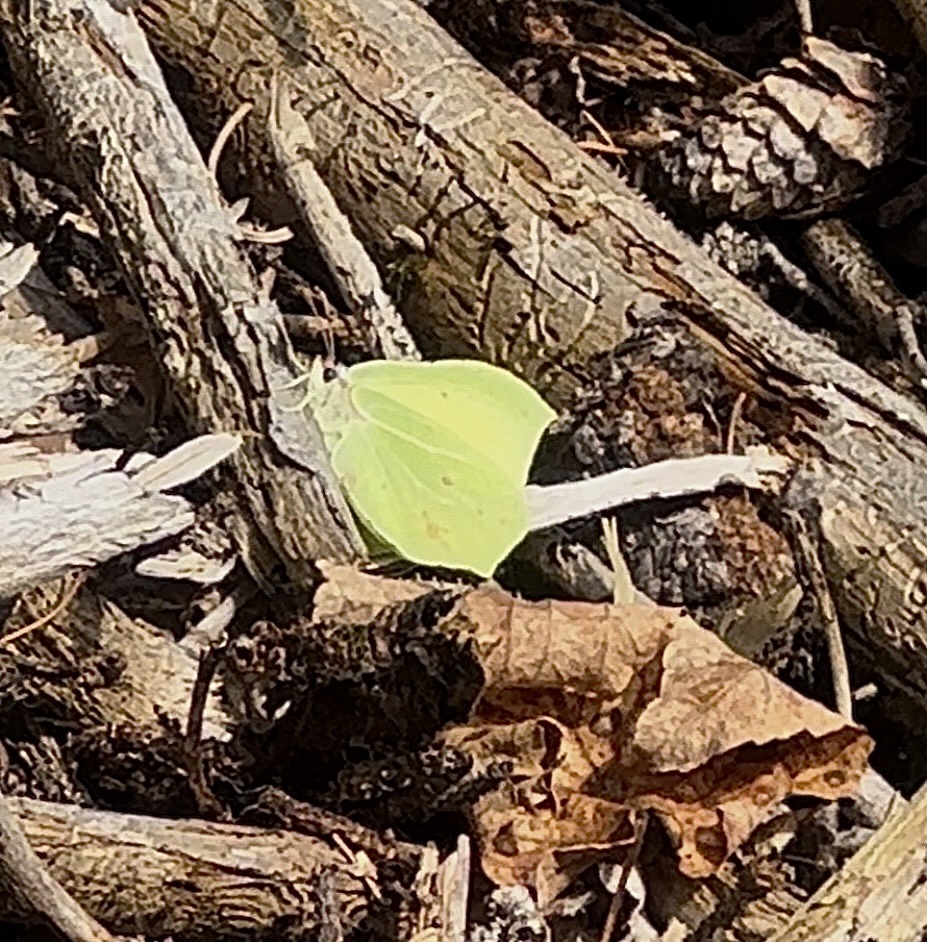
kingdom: Animalia
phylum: Arthropoda
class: Insecta
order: Lepidoptera
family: Pieridae
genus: Gonepteryx
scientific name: Gonepteryx rhamni
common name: Brimstone
